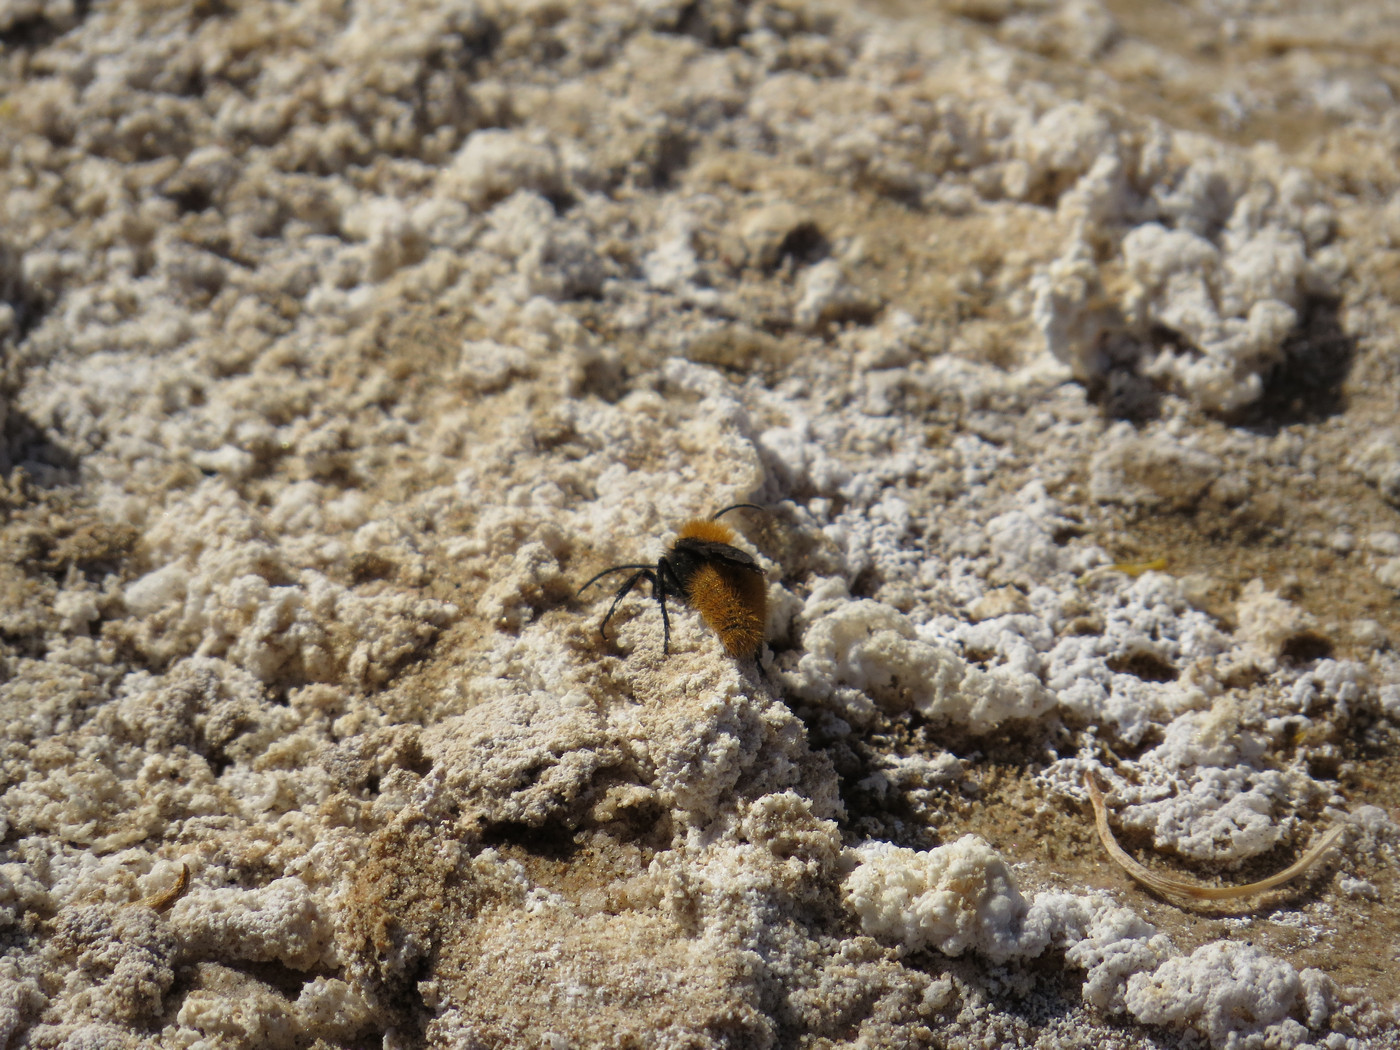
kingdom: Animalia
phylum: Arthropoda
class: Insecta
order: Hymenoptera
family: Mutillidae
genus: Dasymutilla
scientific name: Dasymutilla vestita
